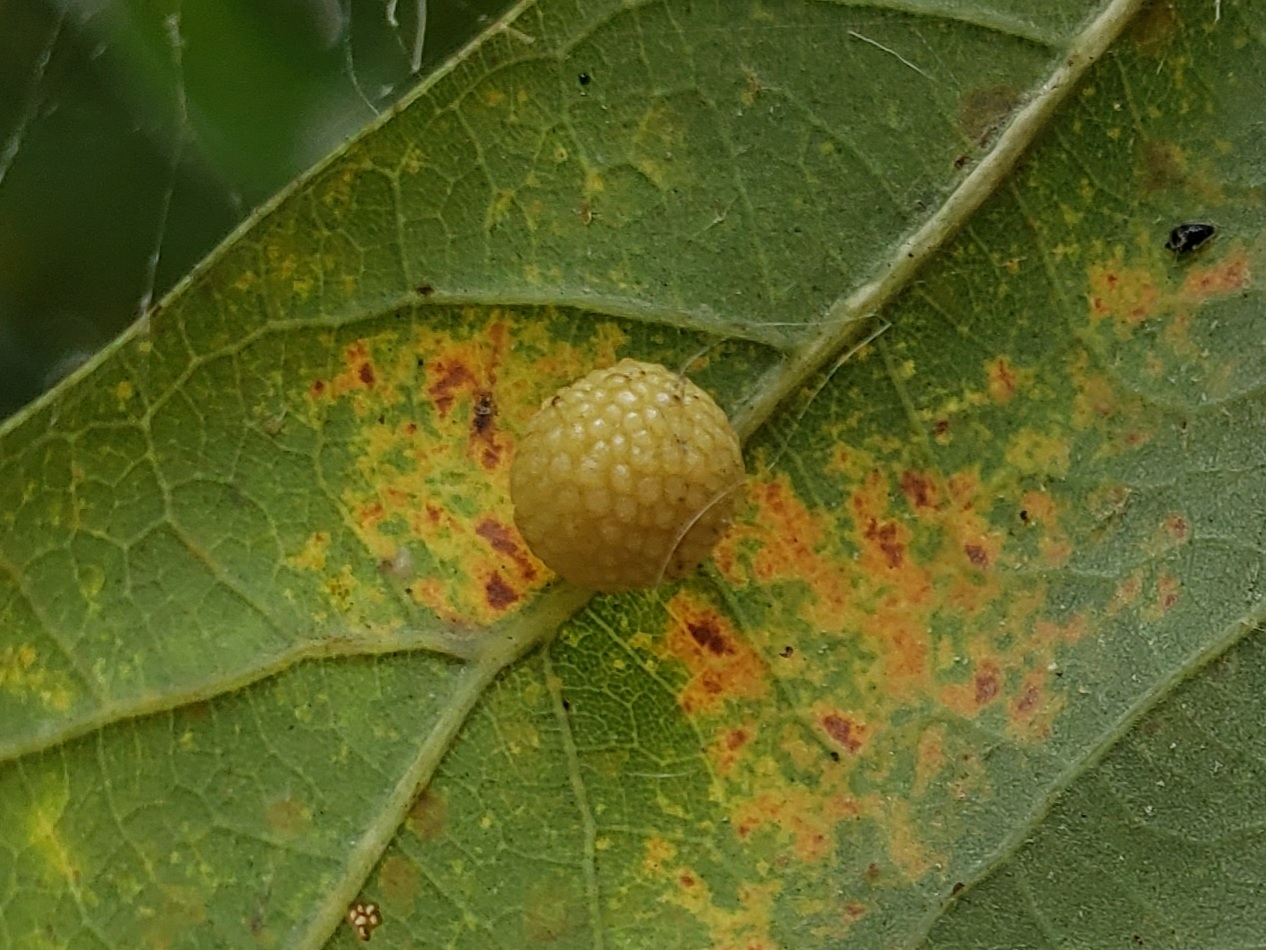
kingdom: Animalia
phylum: Arthropoda
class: Insecta
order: Hymenoptera
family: Cynipidae
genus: Acraspis
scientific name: Acraspis
